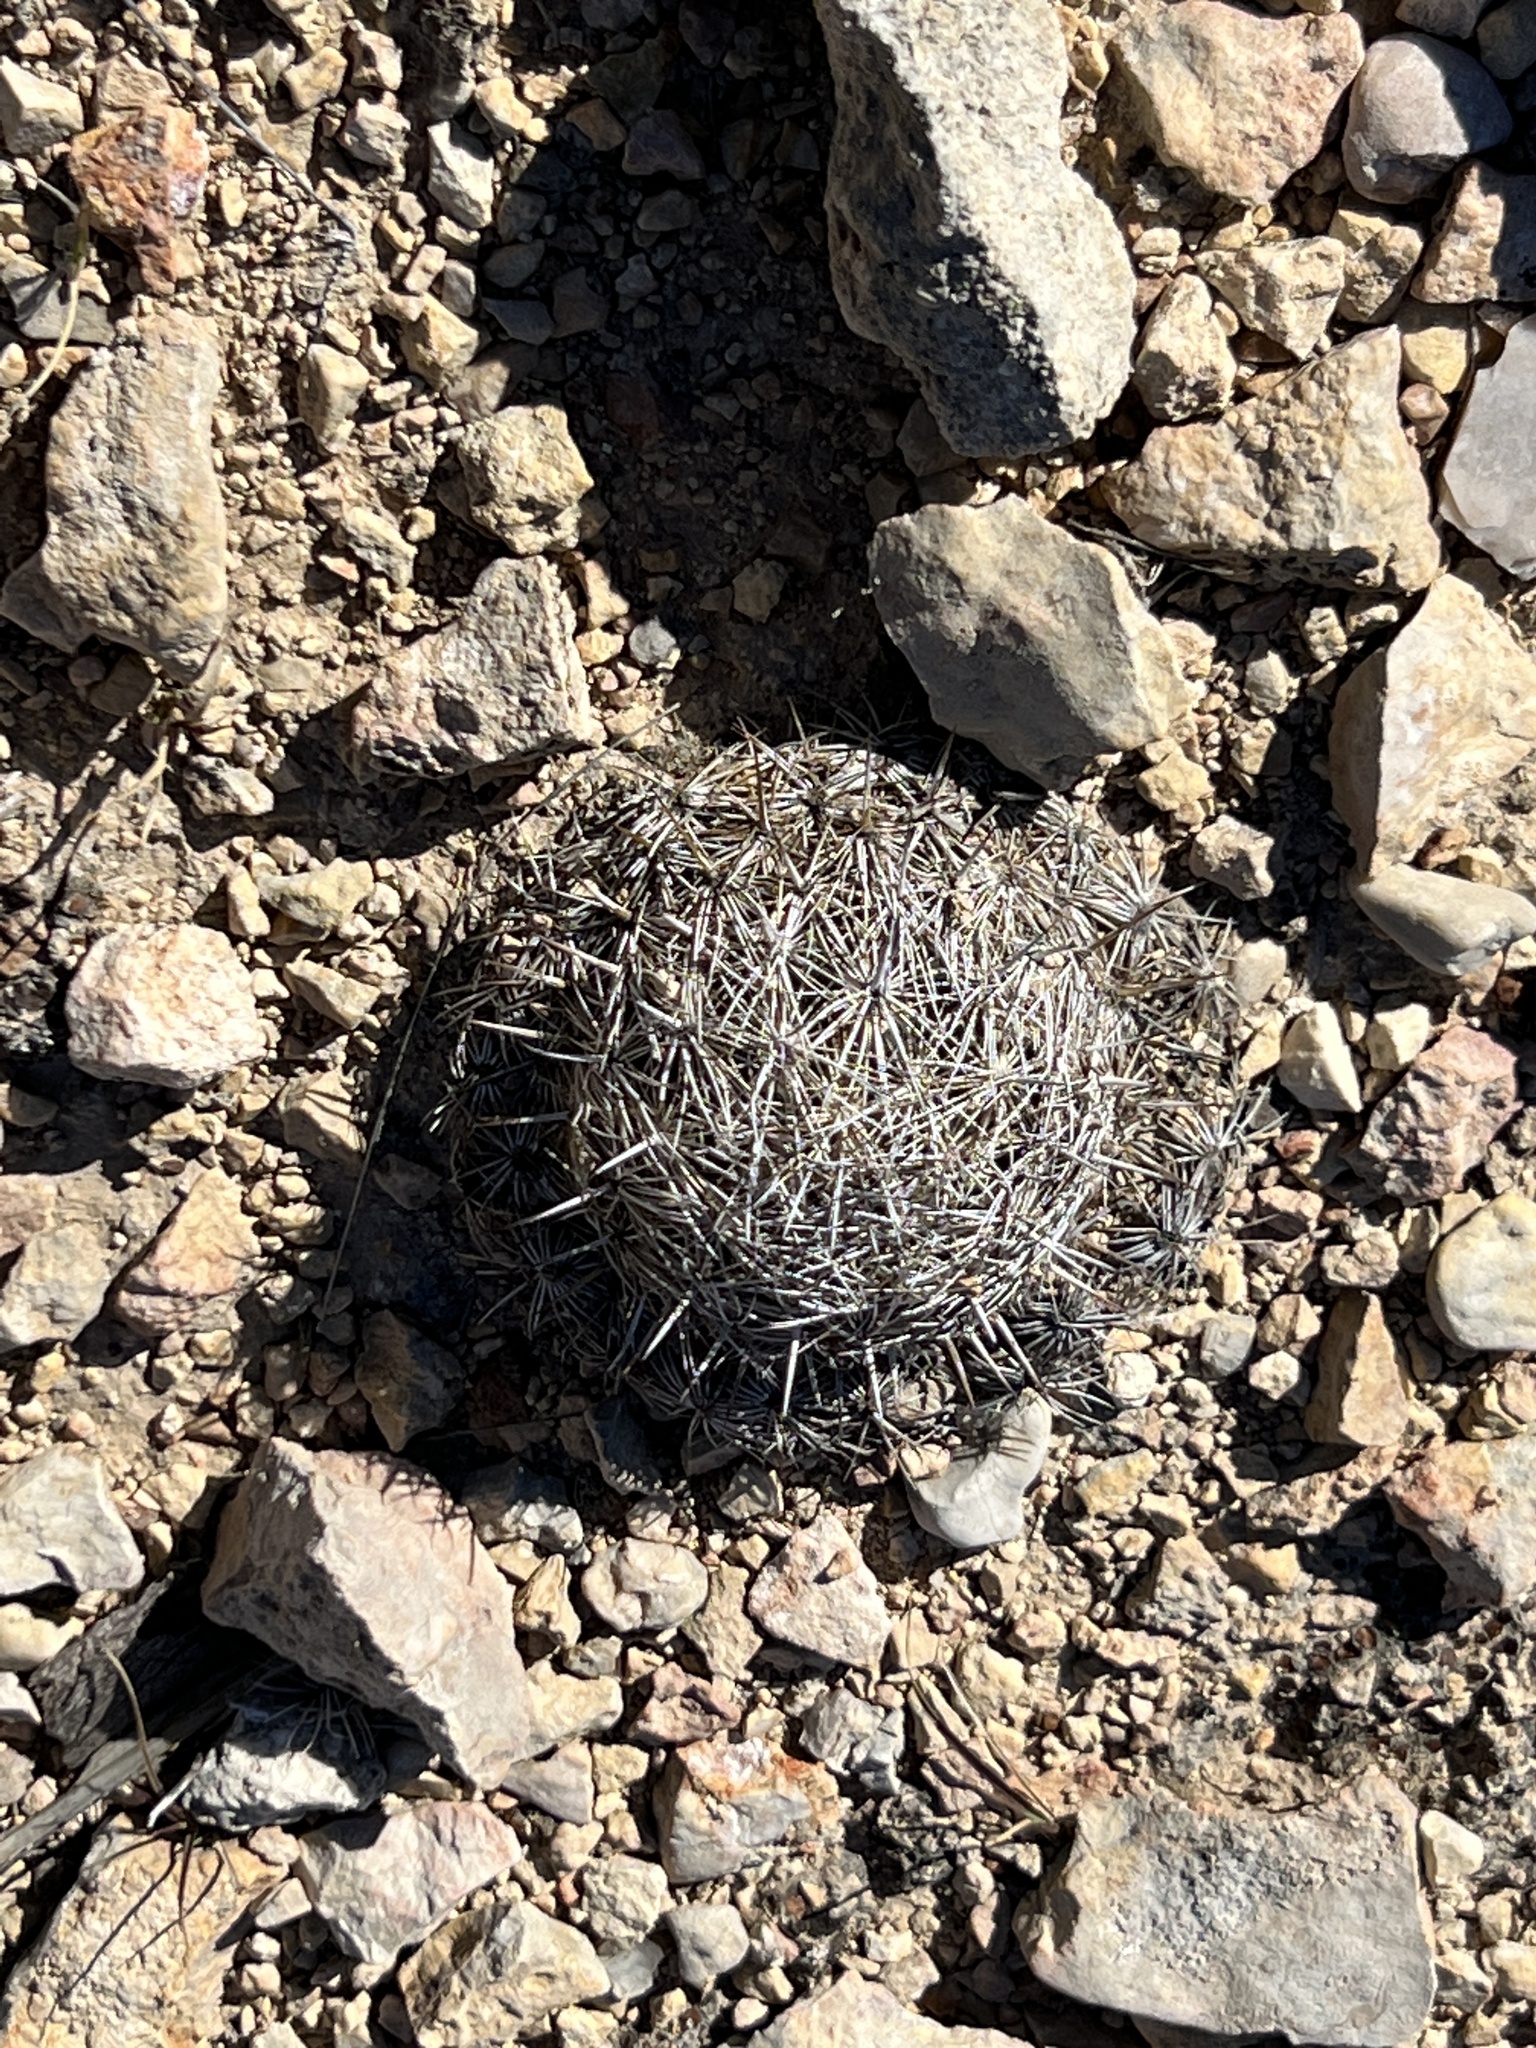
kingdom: Plantae
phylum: Tracheophyta
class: Magnoliopsida
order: Caryophyllales
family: Cactaceae
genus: Coryphantha
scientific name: Coryphantha echinus
